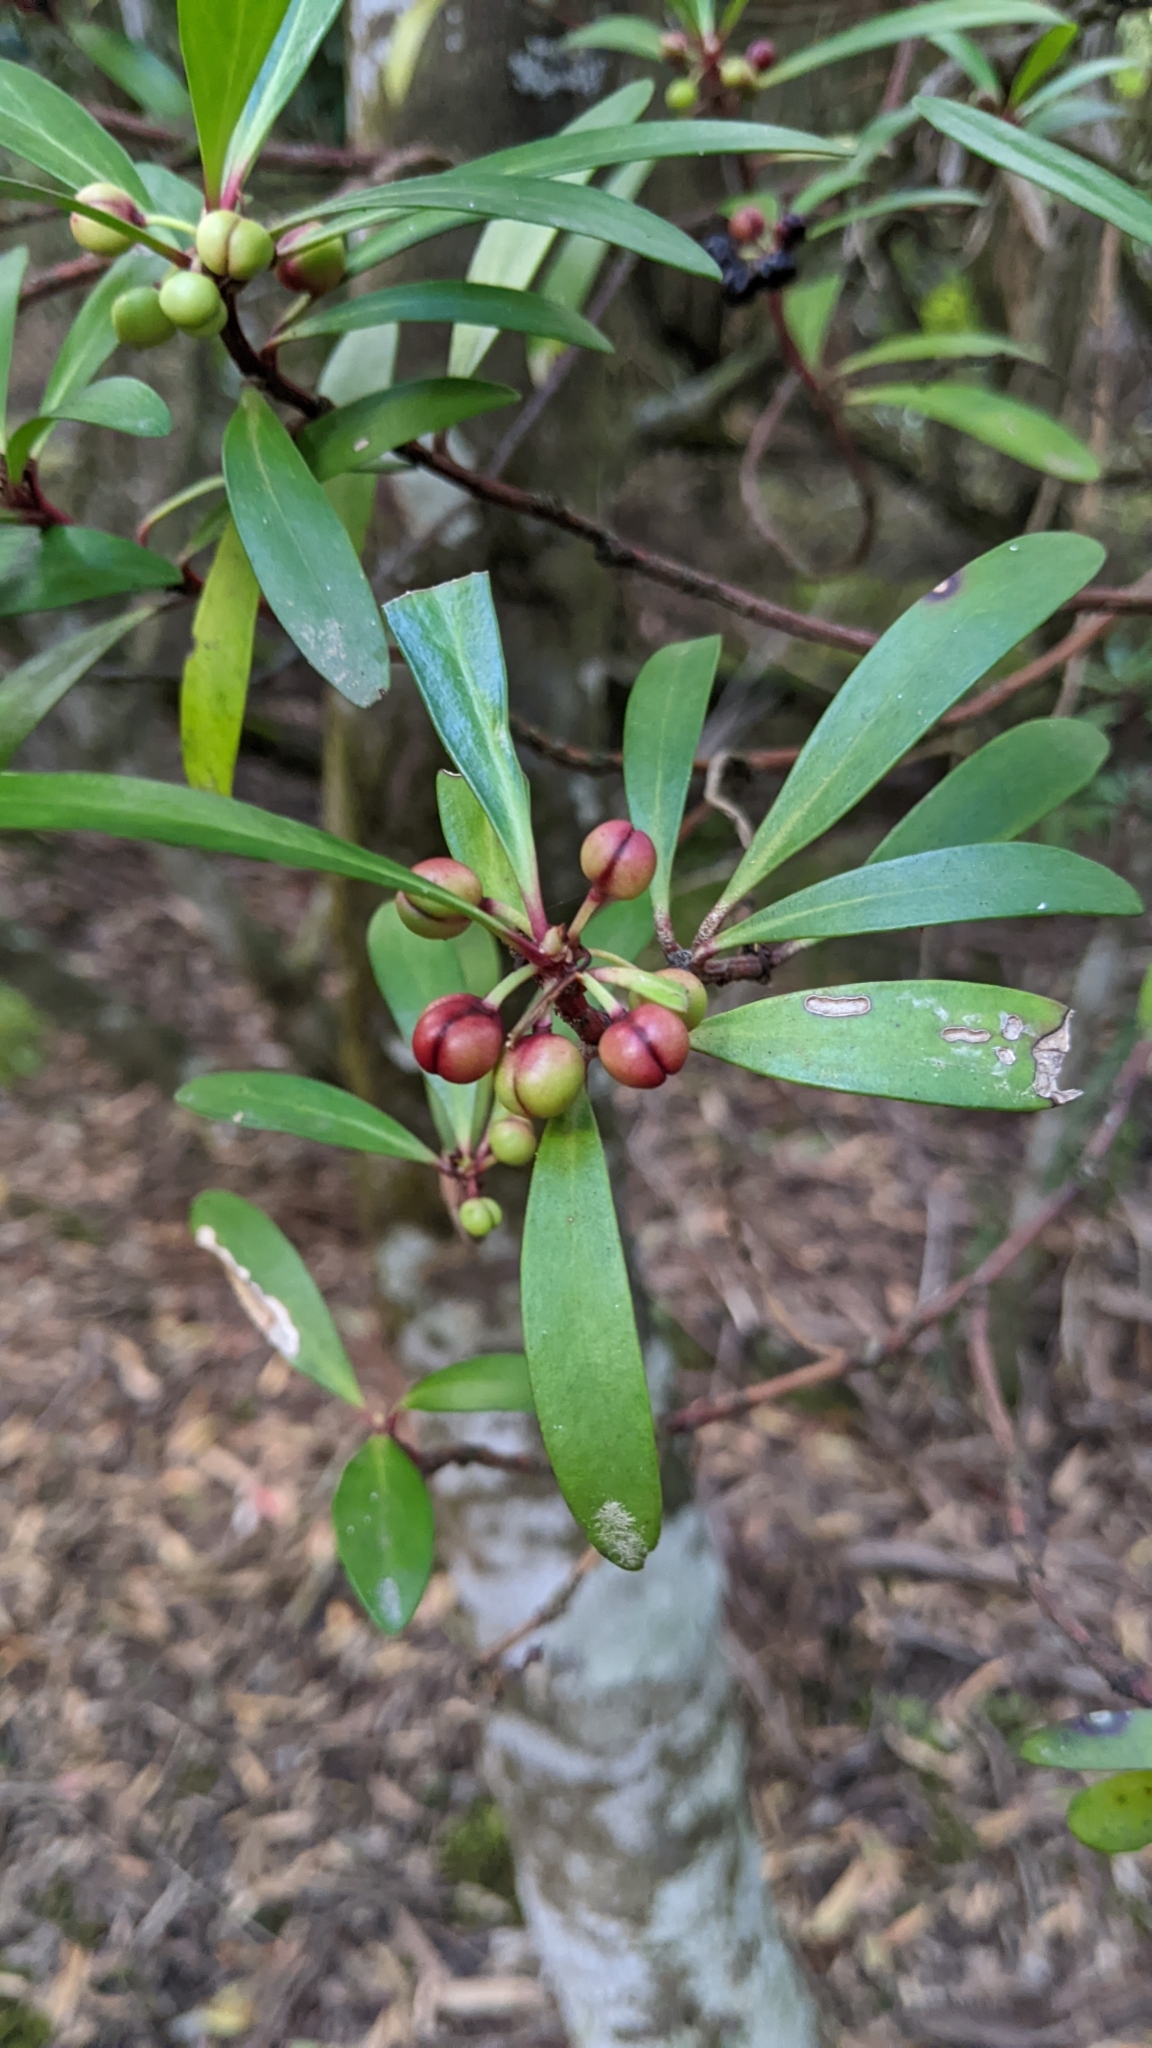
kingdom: Plantae
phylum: Tracheophyta
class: Magnoliopsida
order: Canellales
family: Winteraceae
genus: Drimys
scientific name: Drimys aromatica
